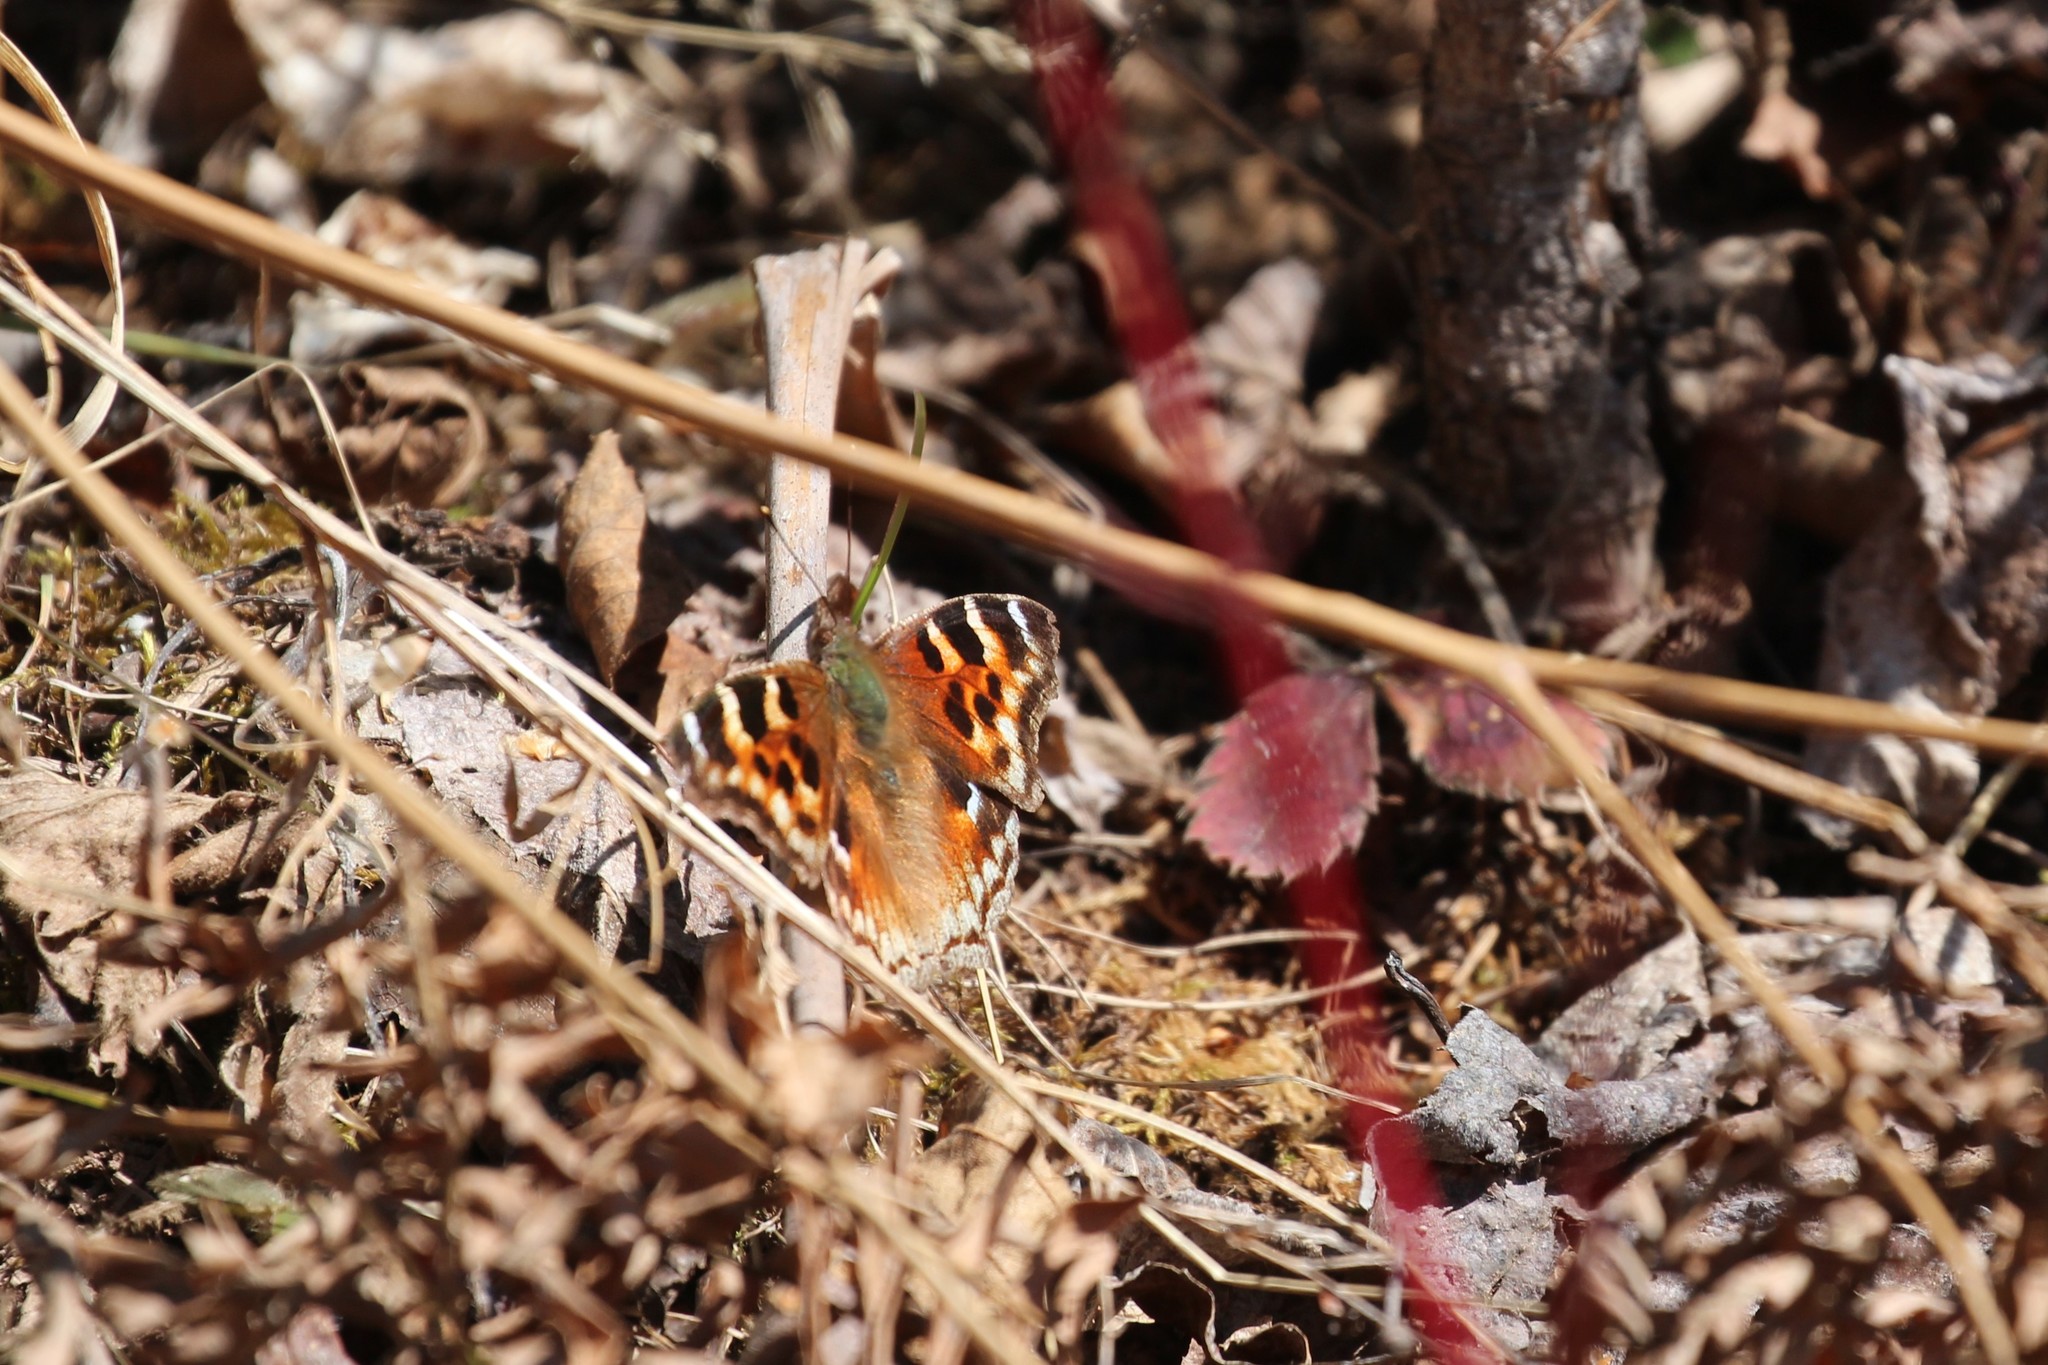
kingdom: Animalia
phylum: Arthropoda
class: Insecta
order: Lepidoptera
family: Nymphalidae
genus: Polygonia
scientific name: Polygonia vaualbum
